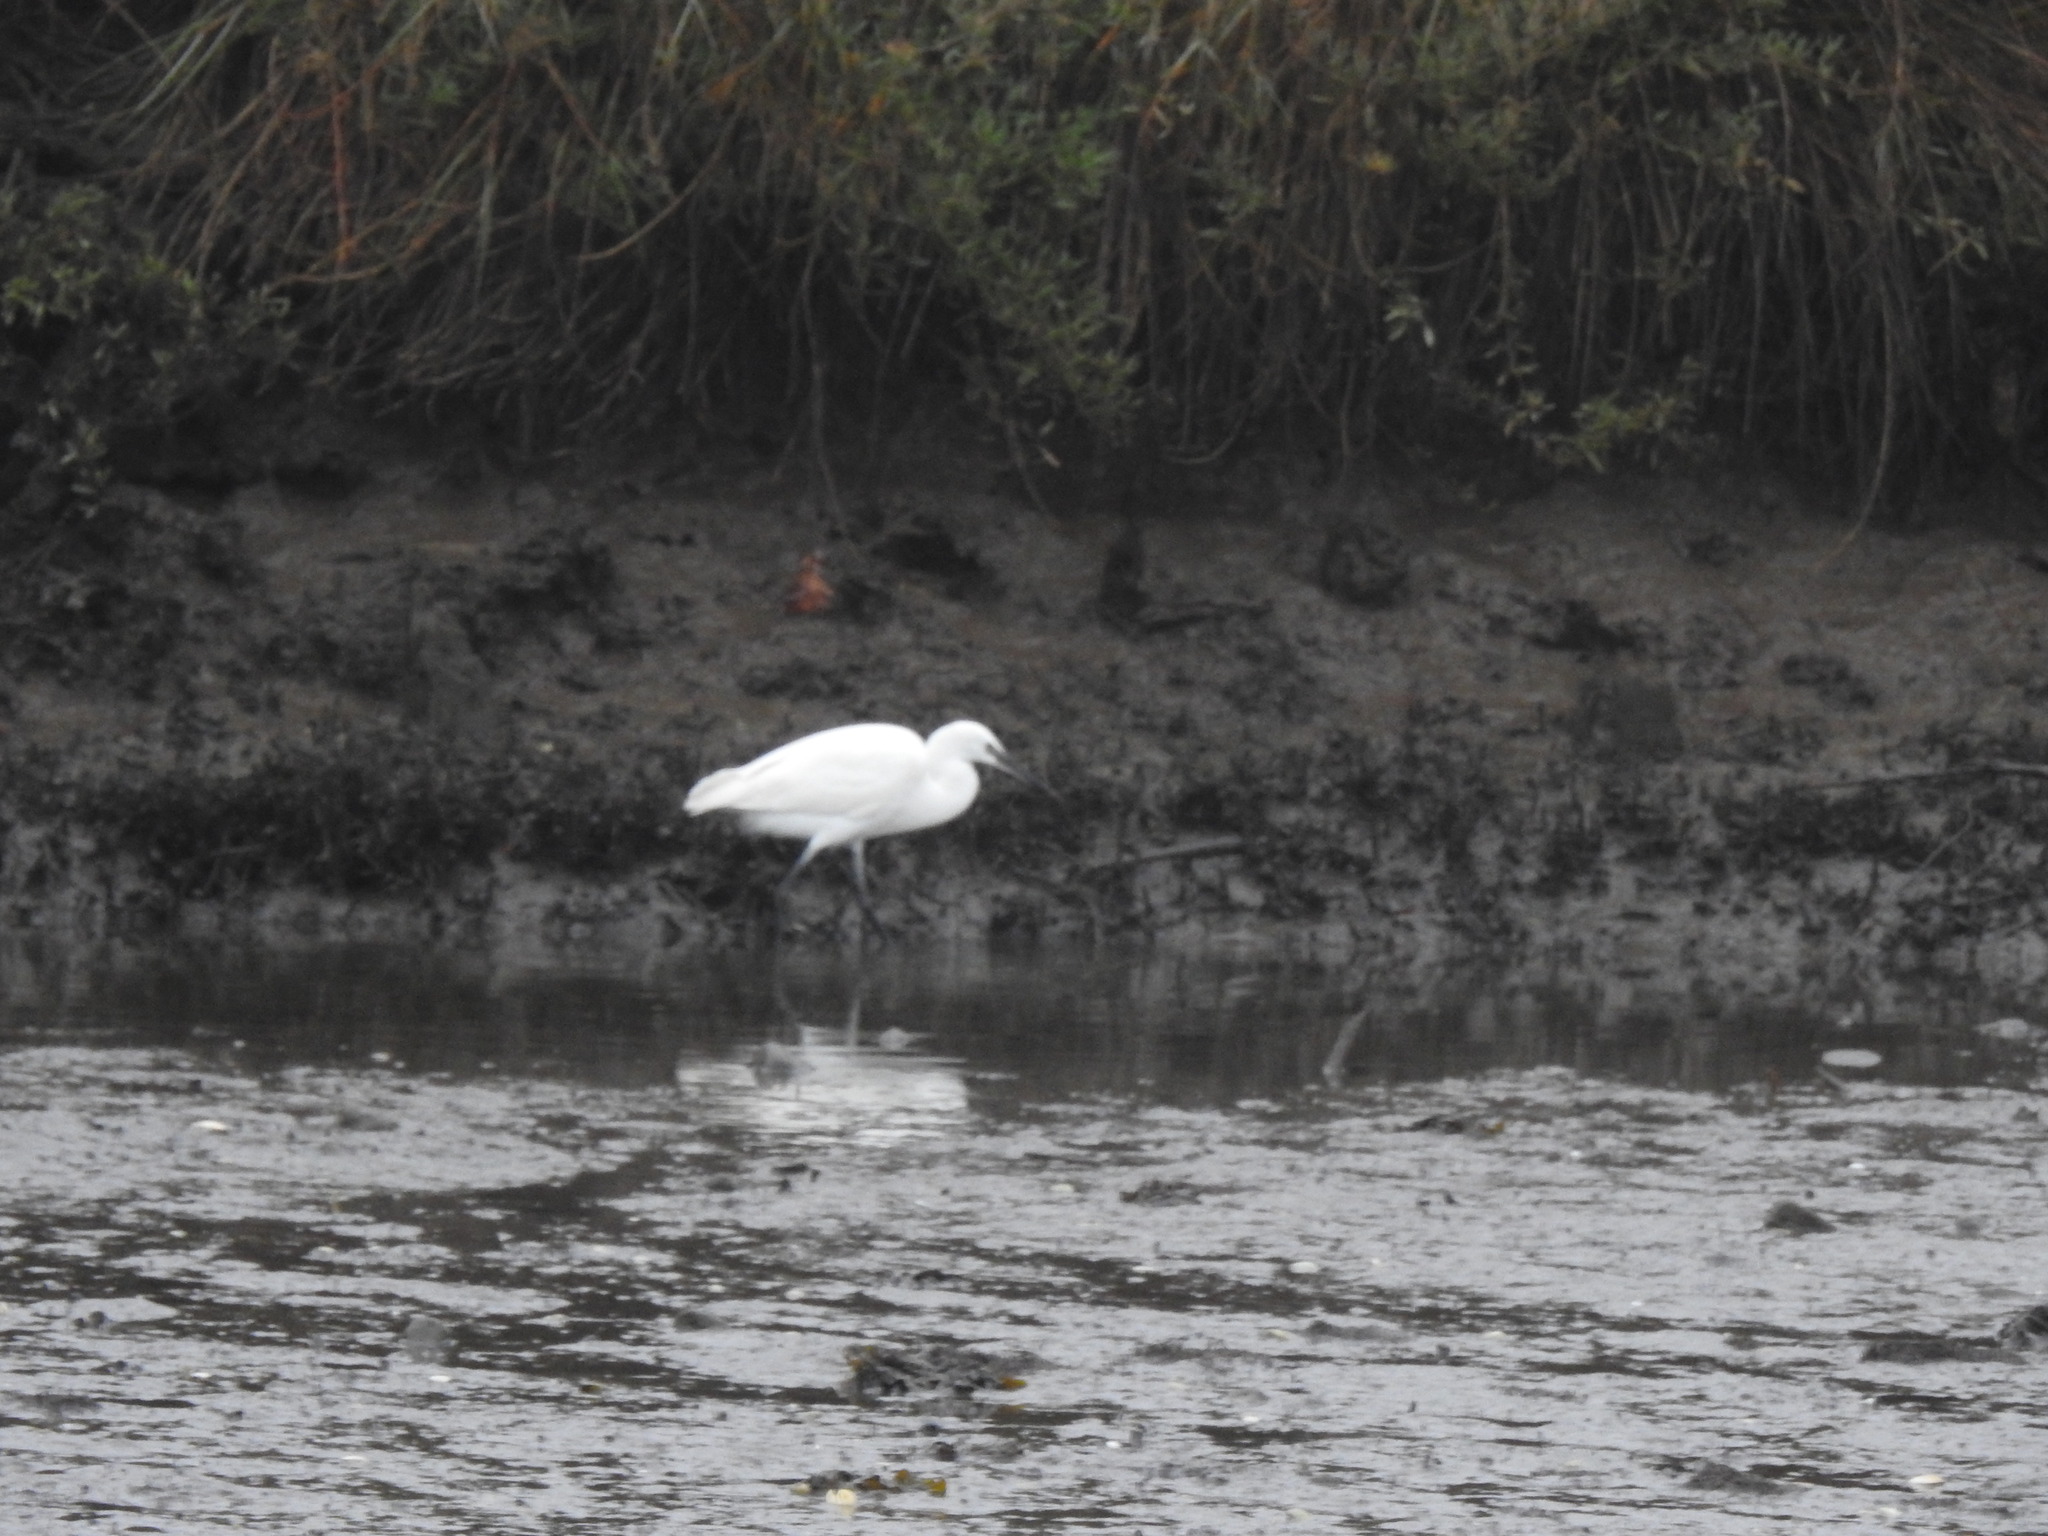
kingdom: Animalia
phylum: Chordata
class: Aves
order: Pelecaniformes
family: Ardeidae
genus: Egretta
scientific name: Egretta garzetta
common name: Little egret
